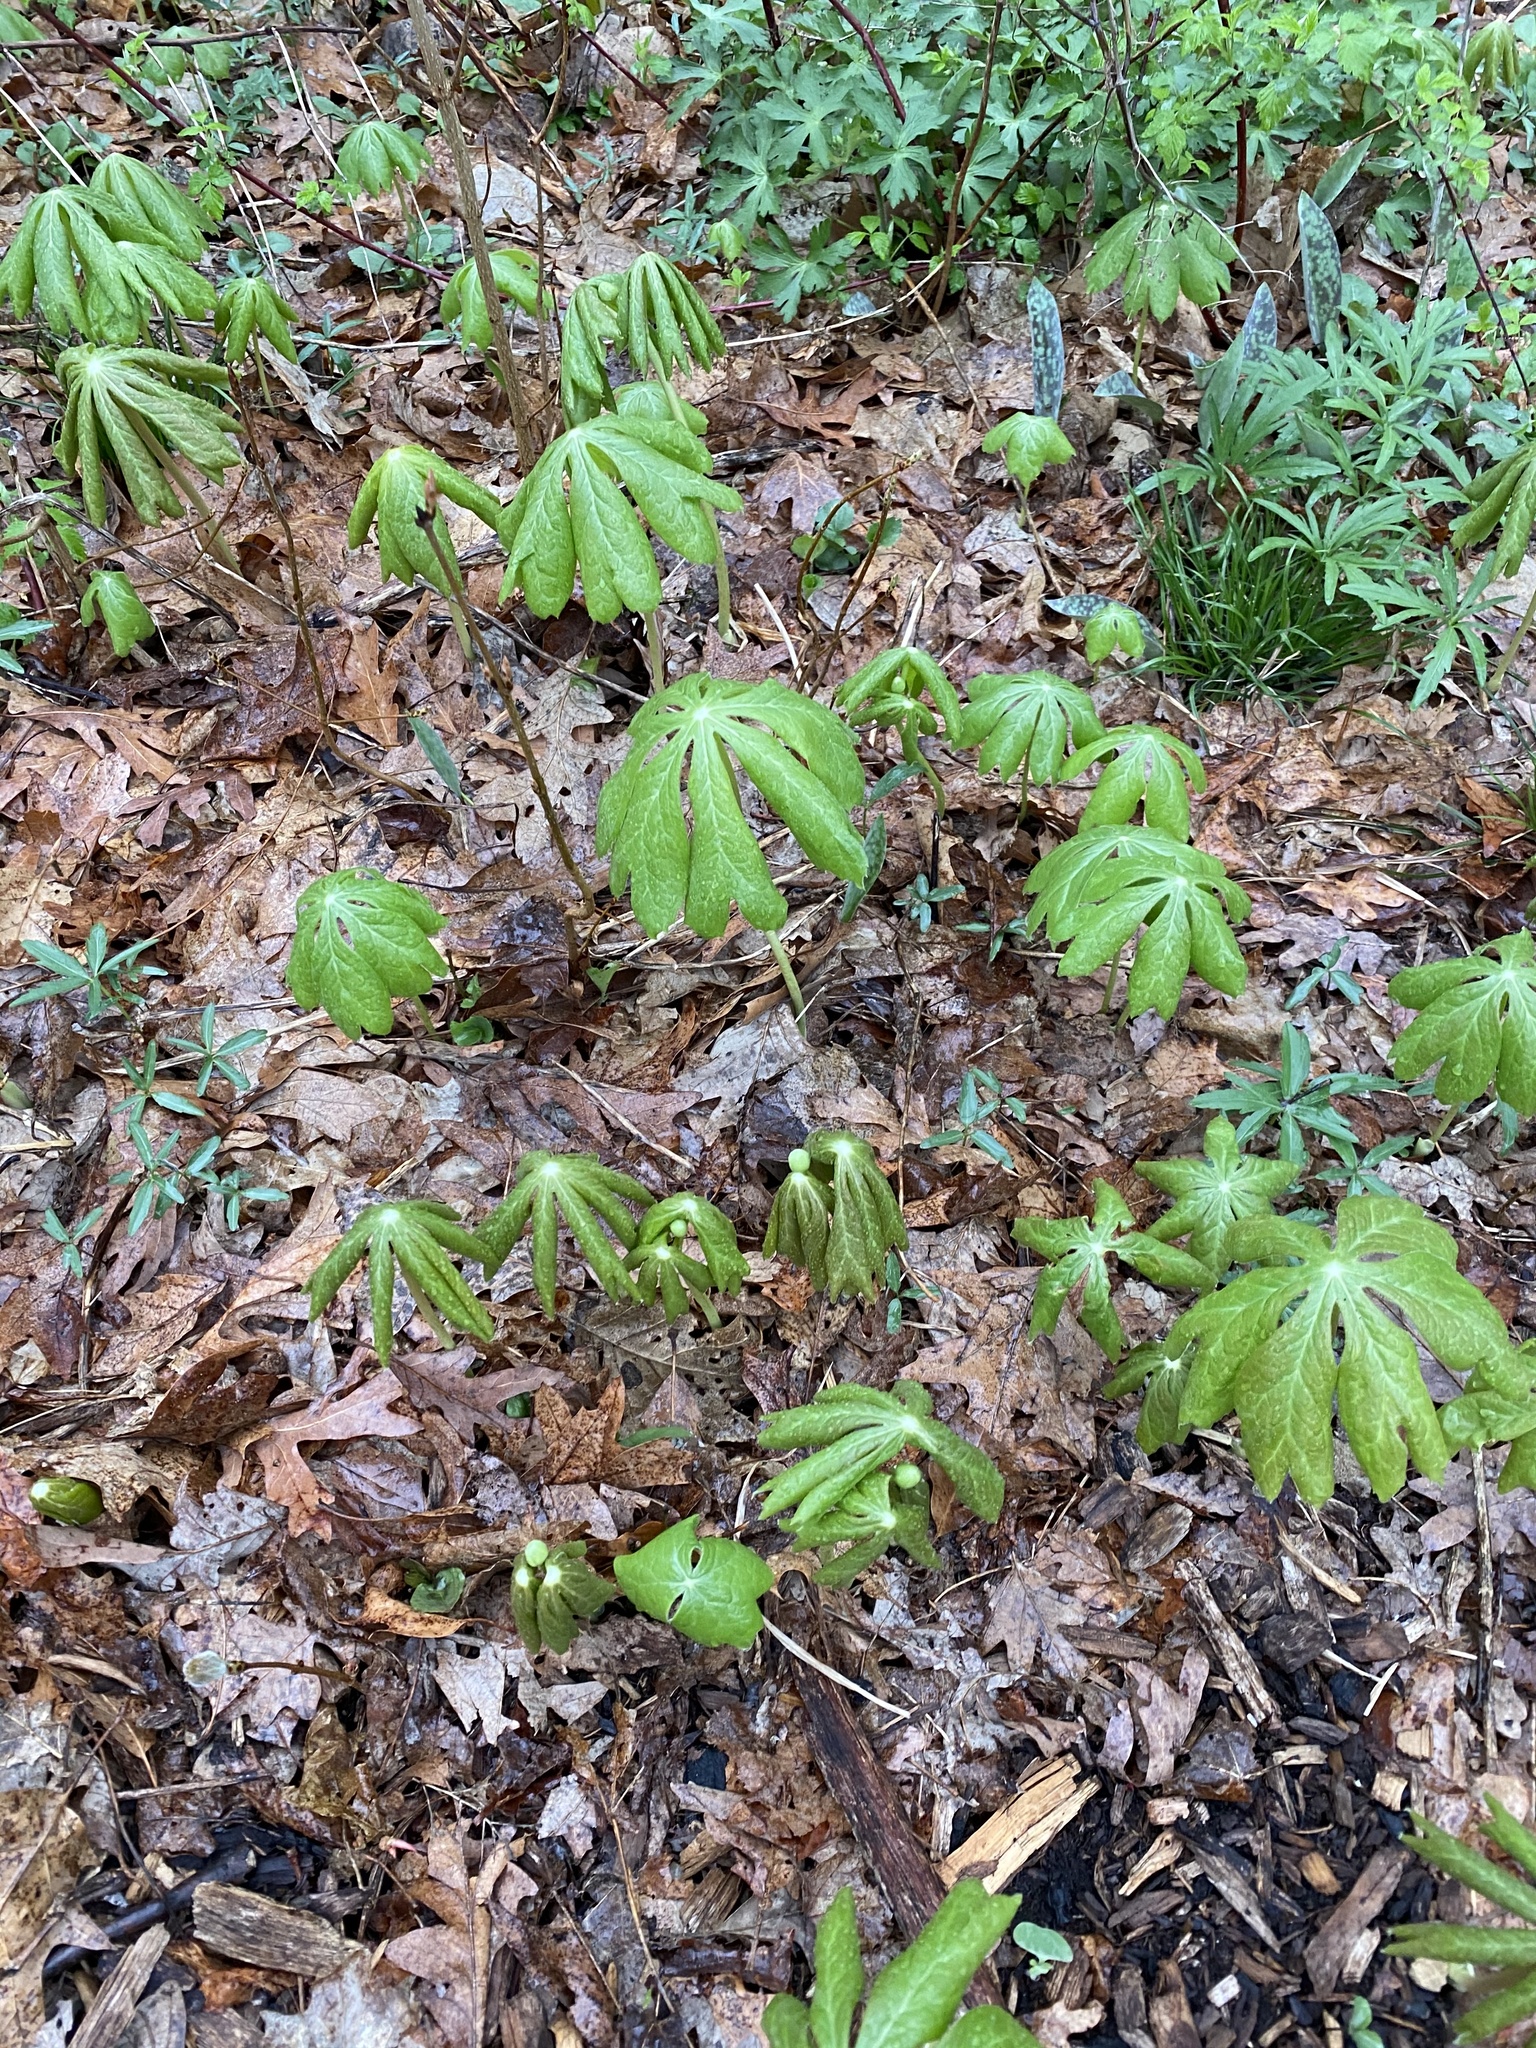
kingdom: Plantae
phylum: Tracheophyta
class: Magnoliopsida
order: Ranunculales
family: Berberidaceae
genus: Podophyllum
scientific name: Podophyllum peltatum
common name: Wild mandrake
